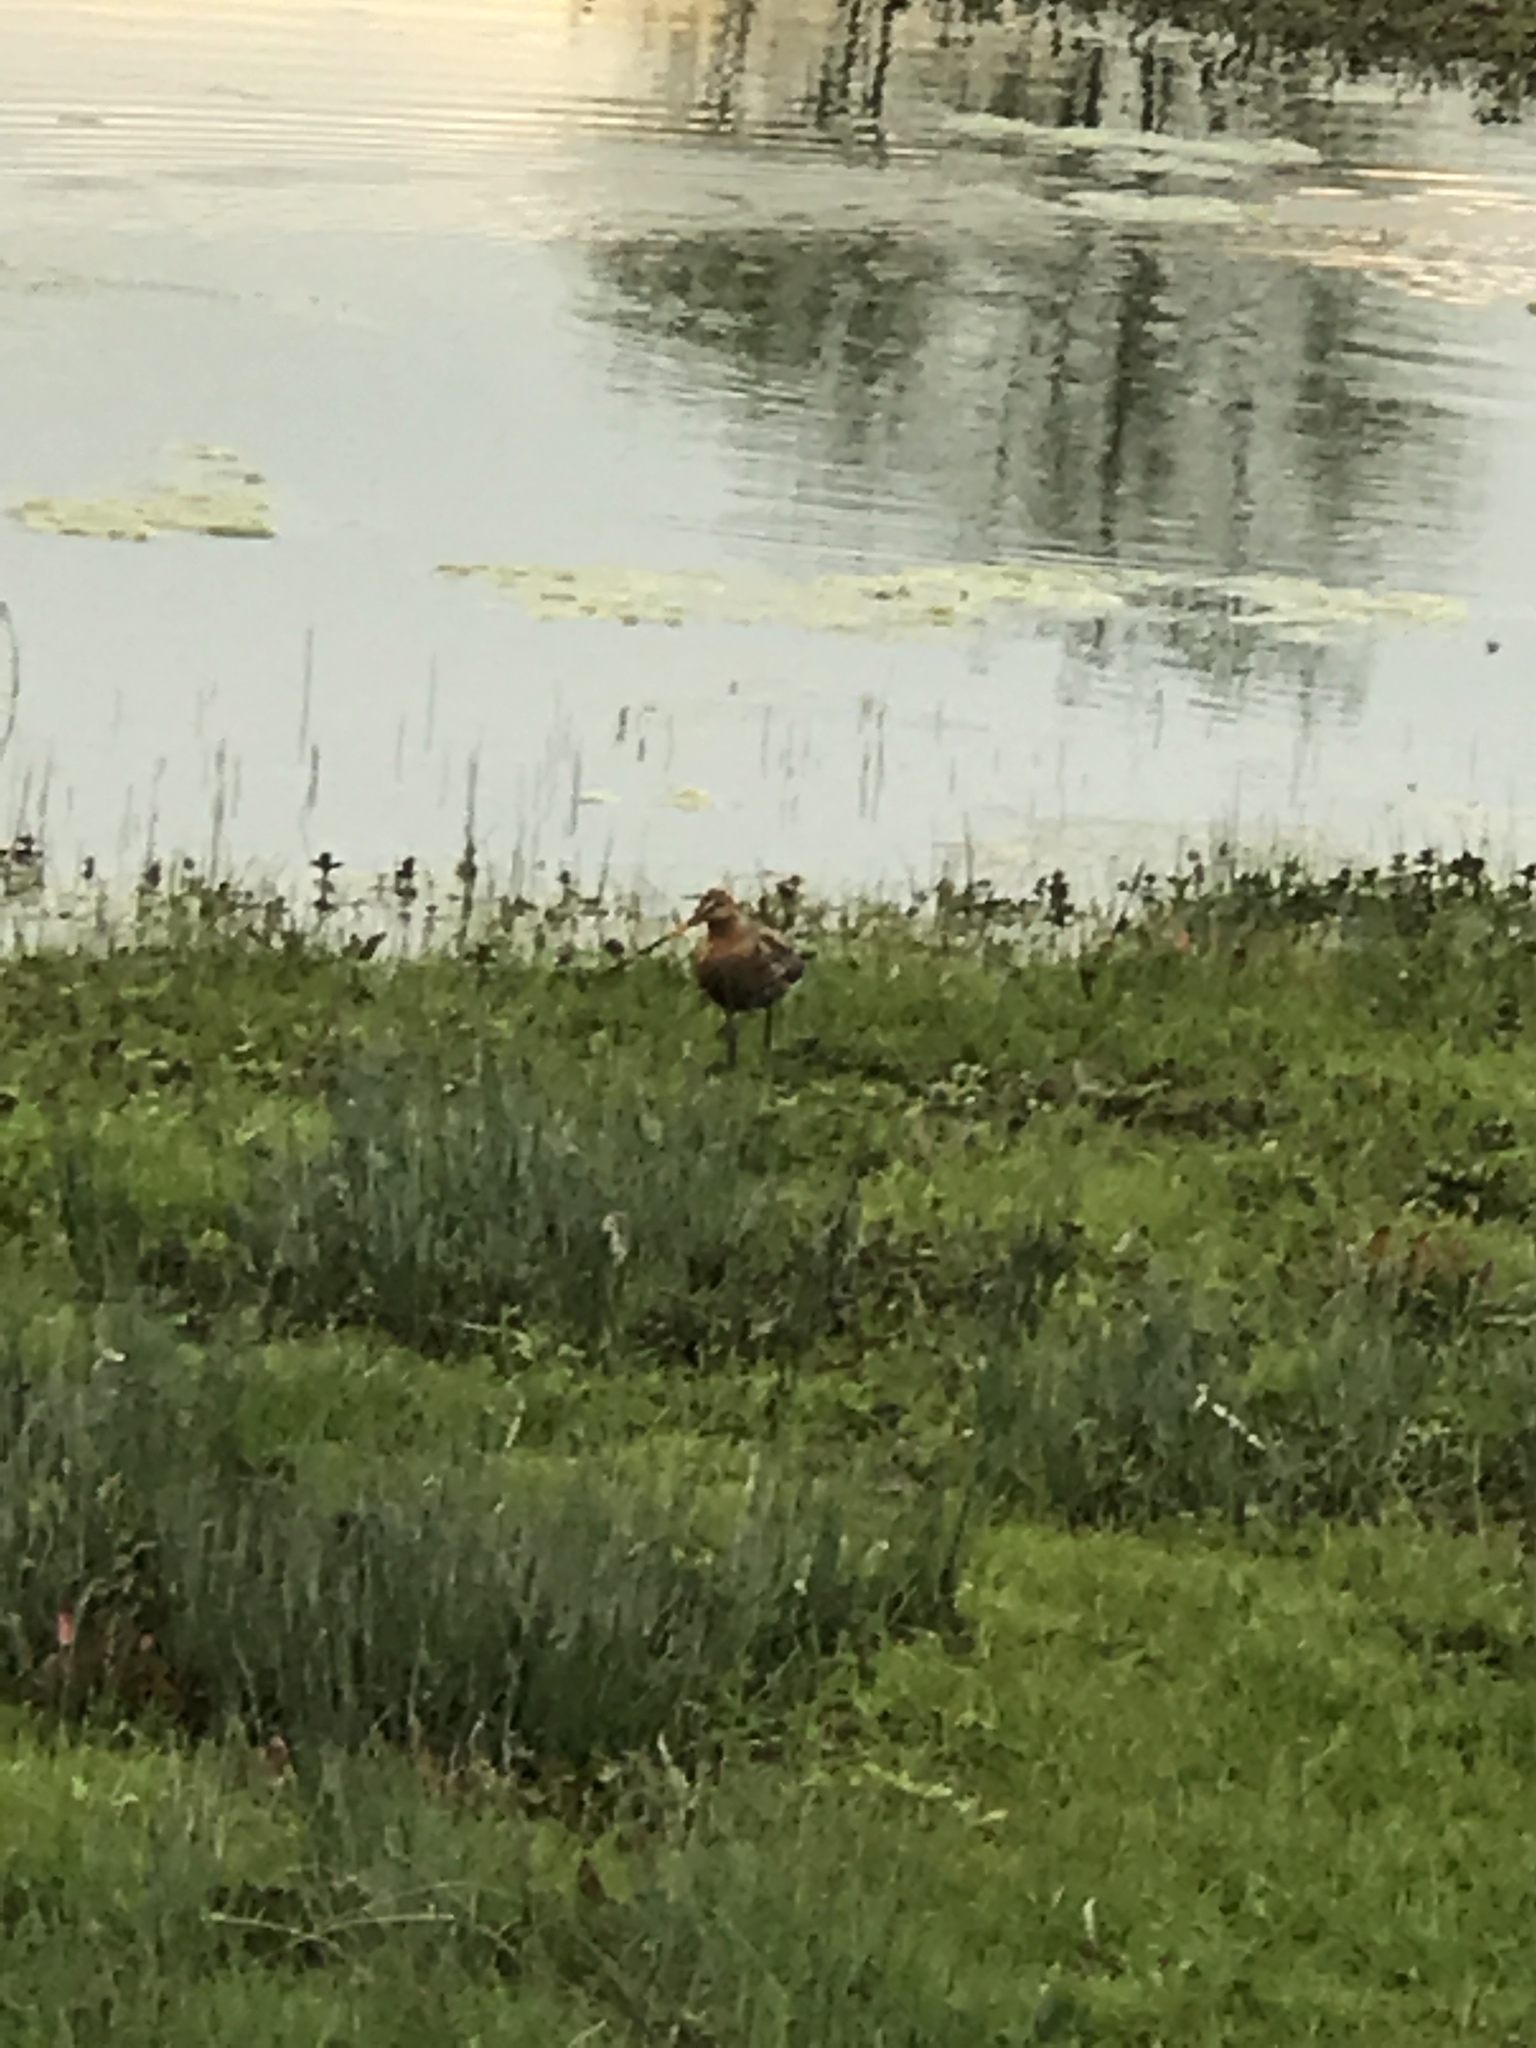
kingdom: Animalia
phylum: Chordata
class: Aves
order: Charadriiformes
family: Scolopacidae
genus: Limosa
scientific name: Limosa limosa
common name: Black-tailed godwit
